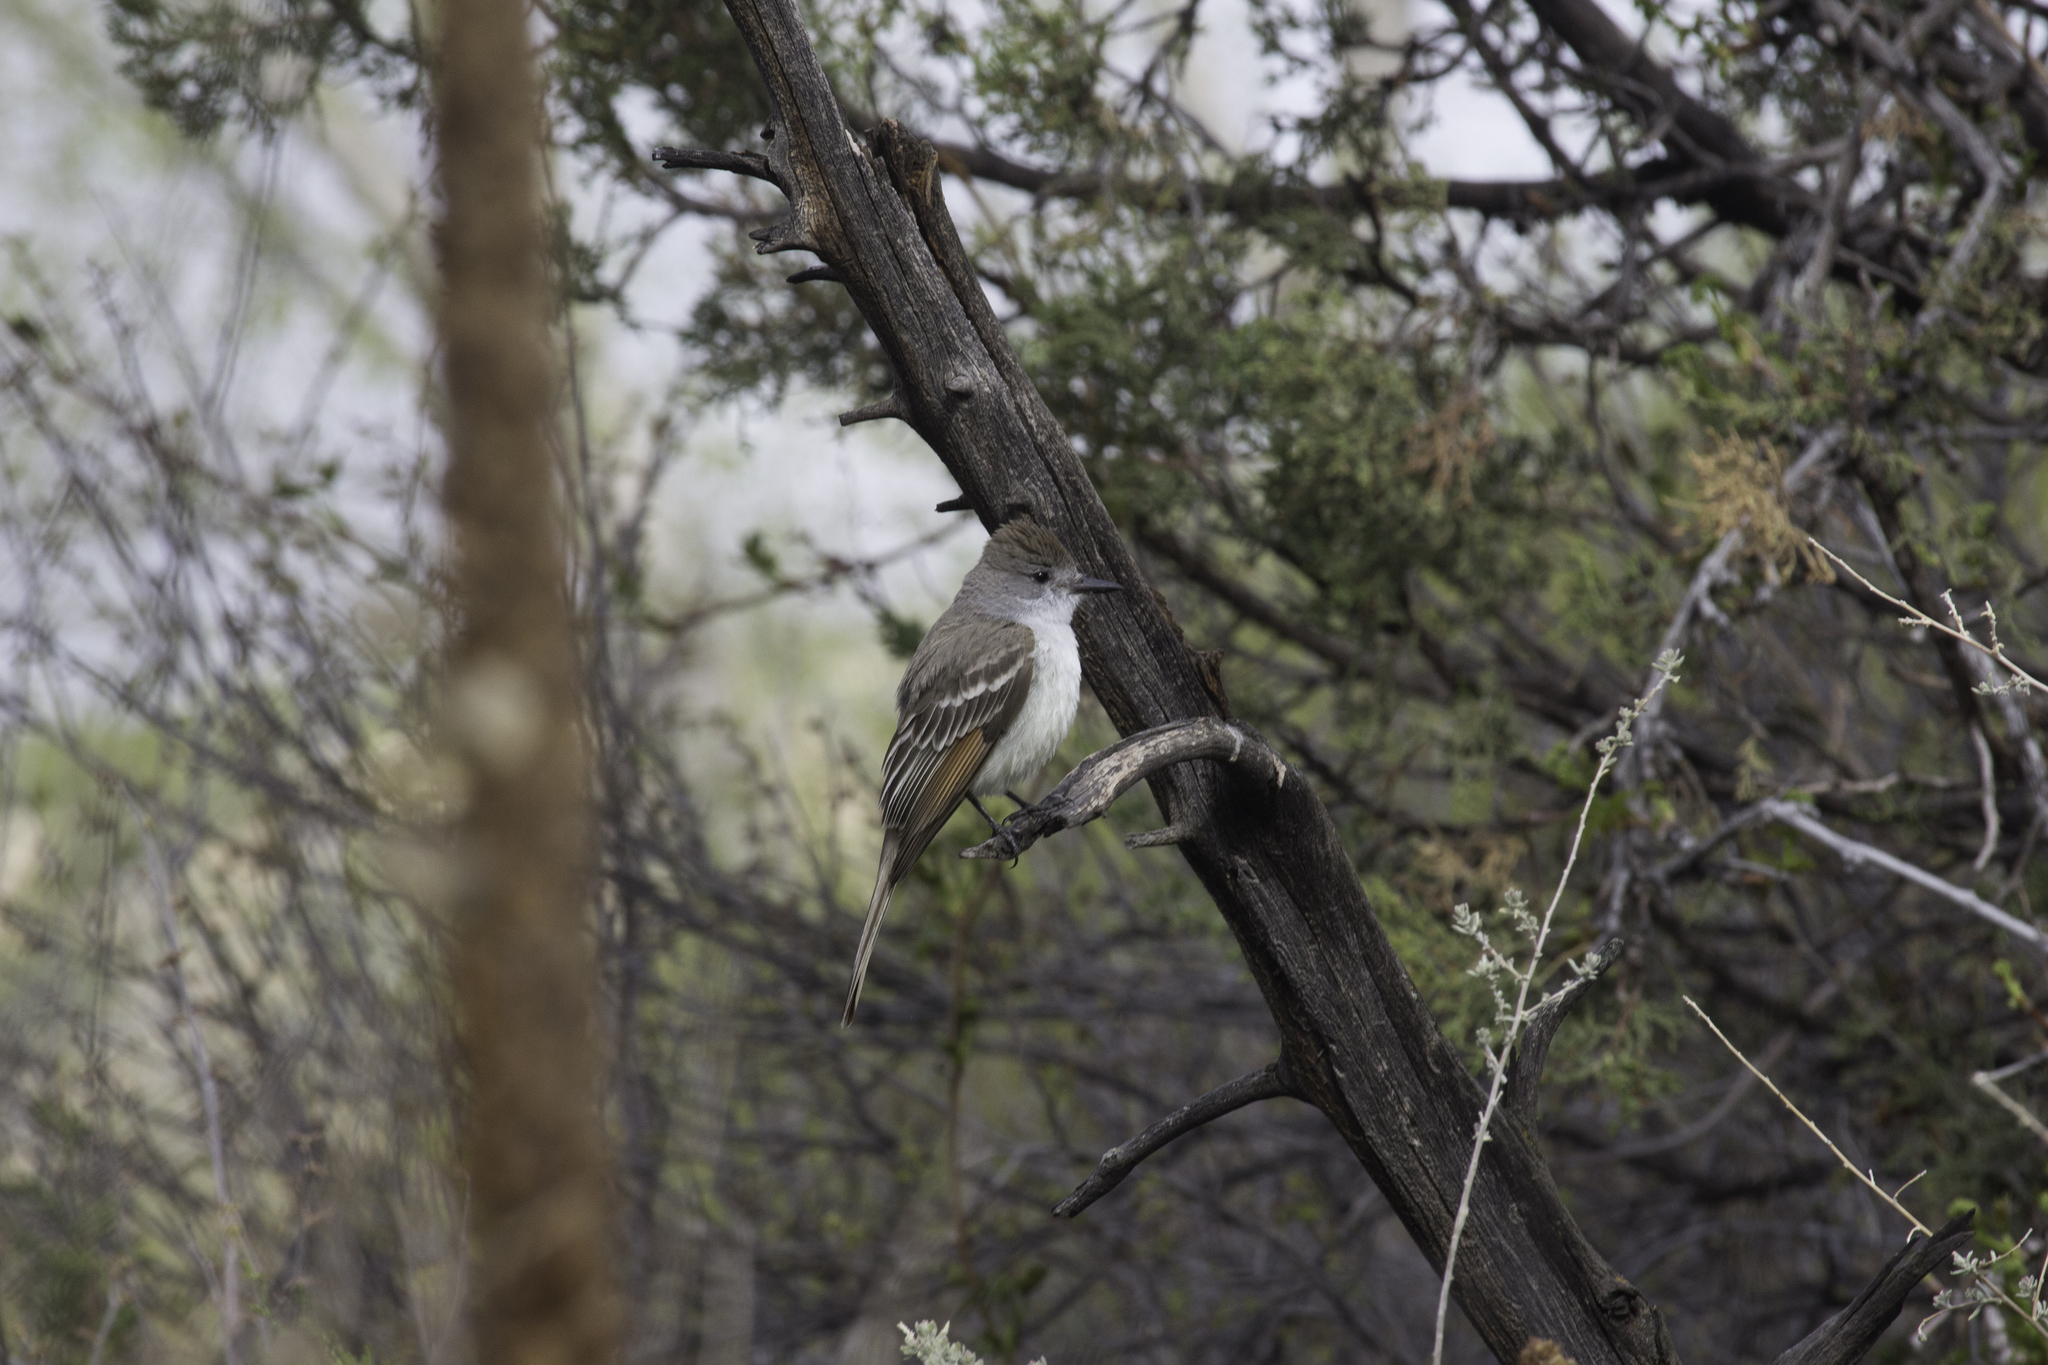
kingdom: Animalia
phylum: Chordata
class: Aves
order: Passeriformes
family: Tyrannidae
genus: Myiarchus
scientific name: Myiarchus cinerascens
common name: Ash-throated flycatcher
